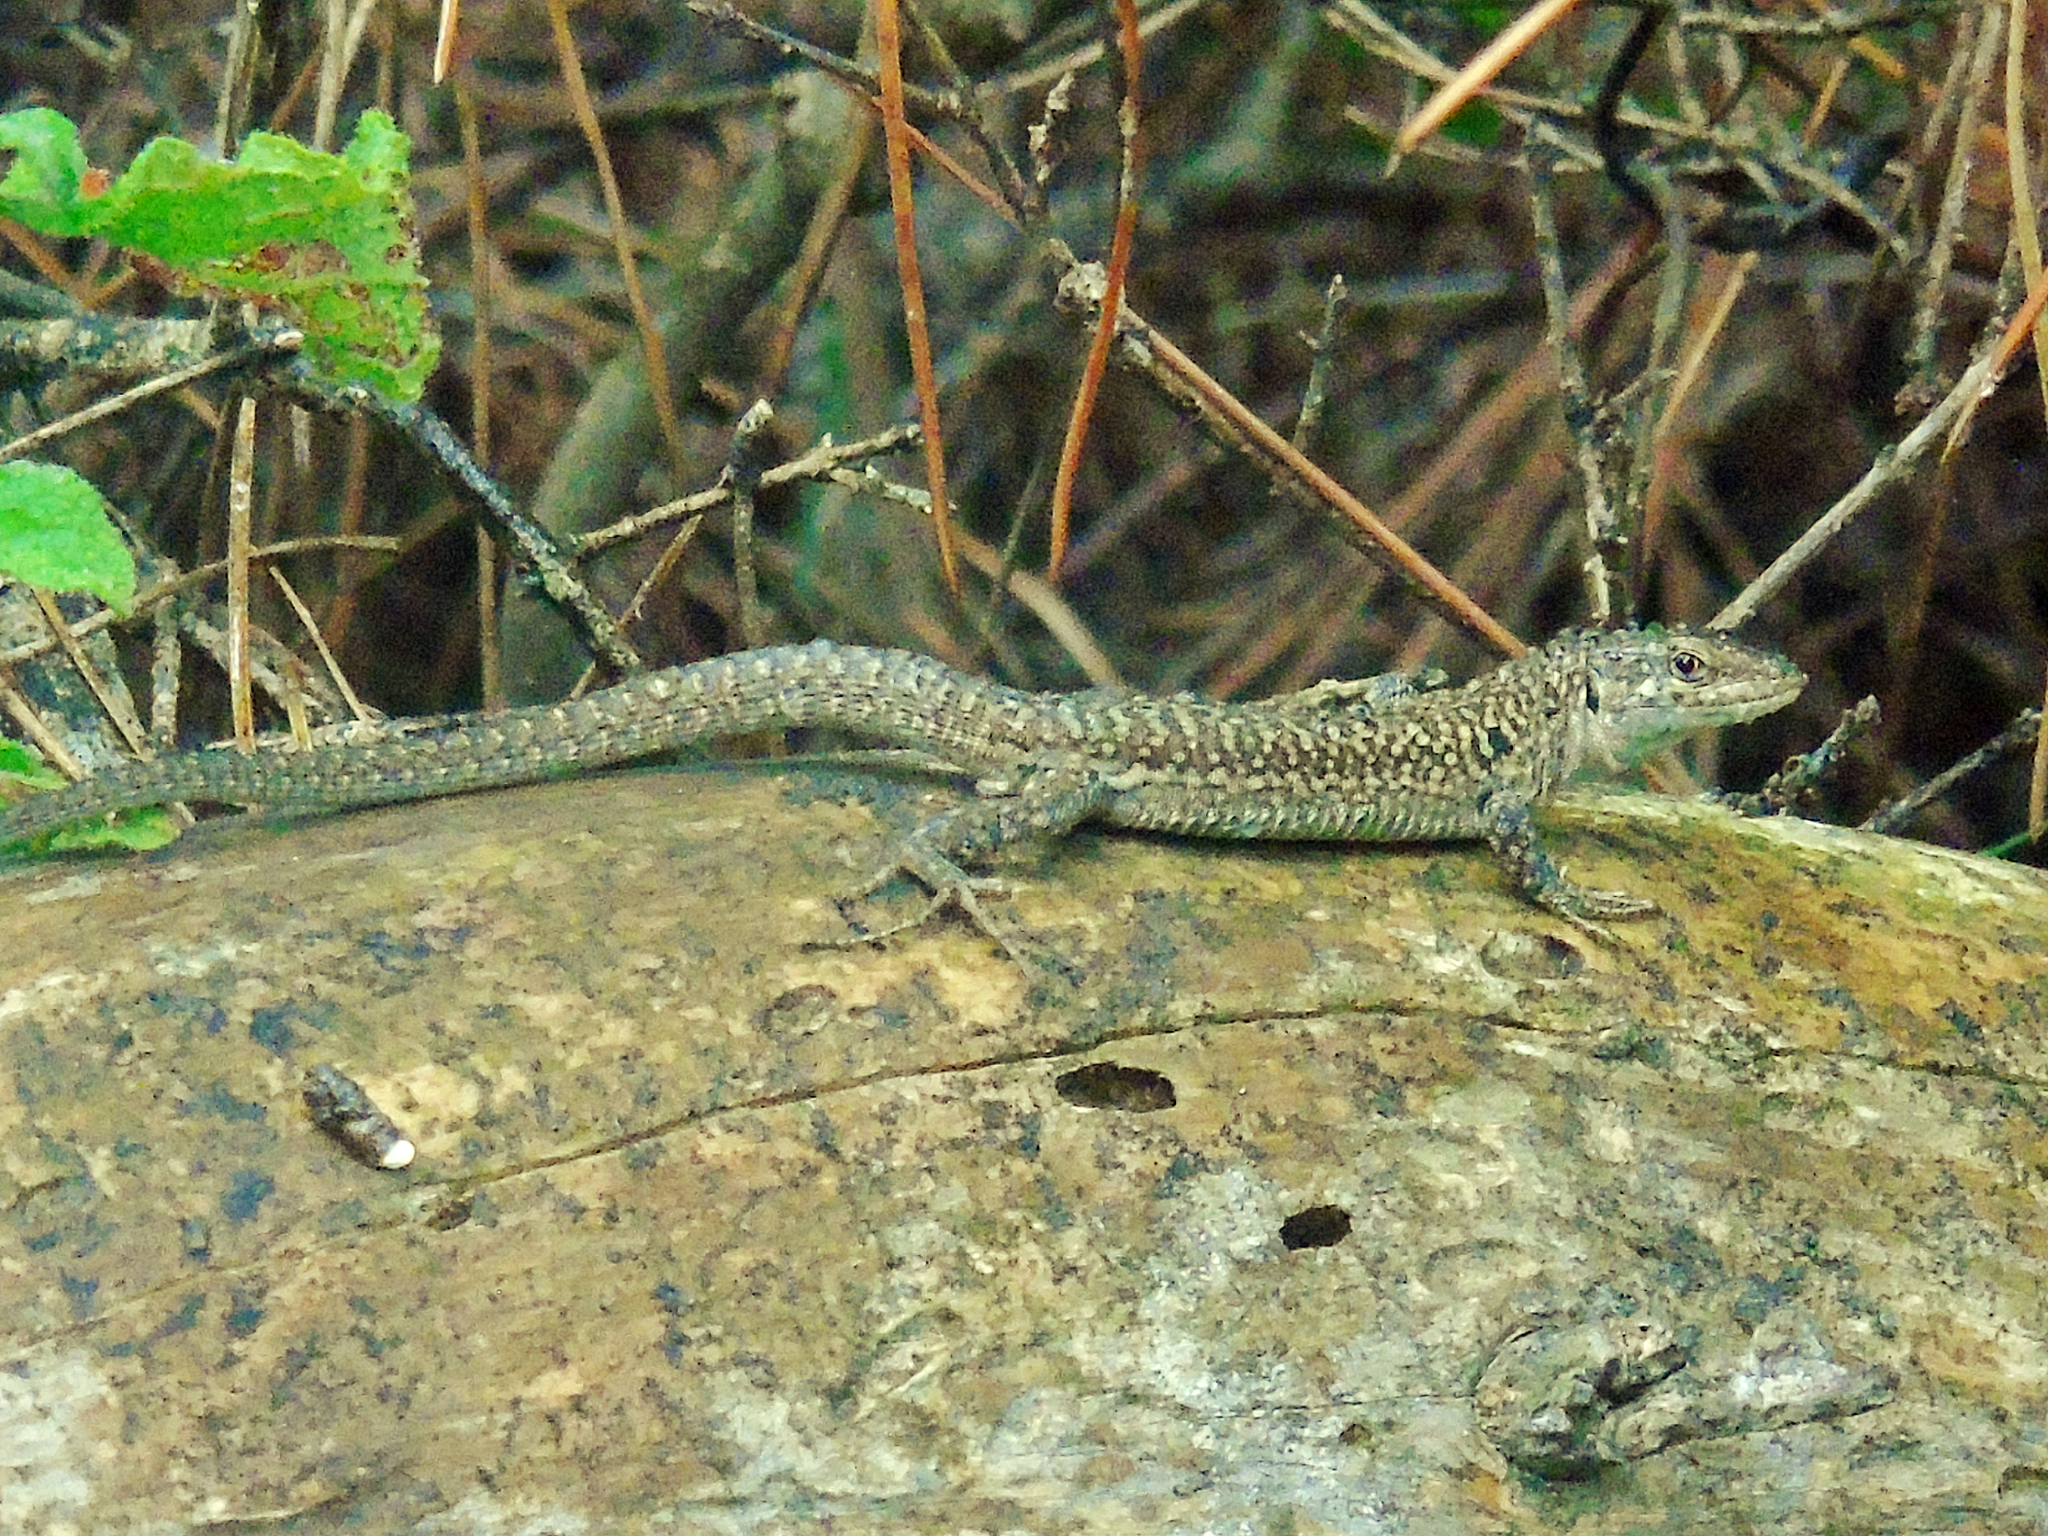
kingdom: Animalia
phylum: Chordata
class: Squamata
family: Lacertidae
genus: Podarcis
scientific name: Podarcis siculus
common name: Italian wall lizard
